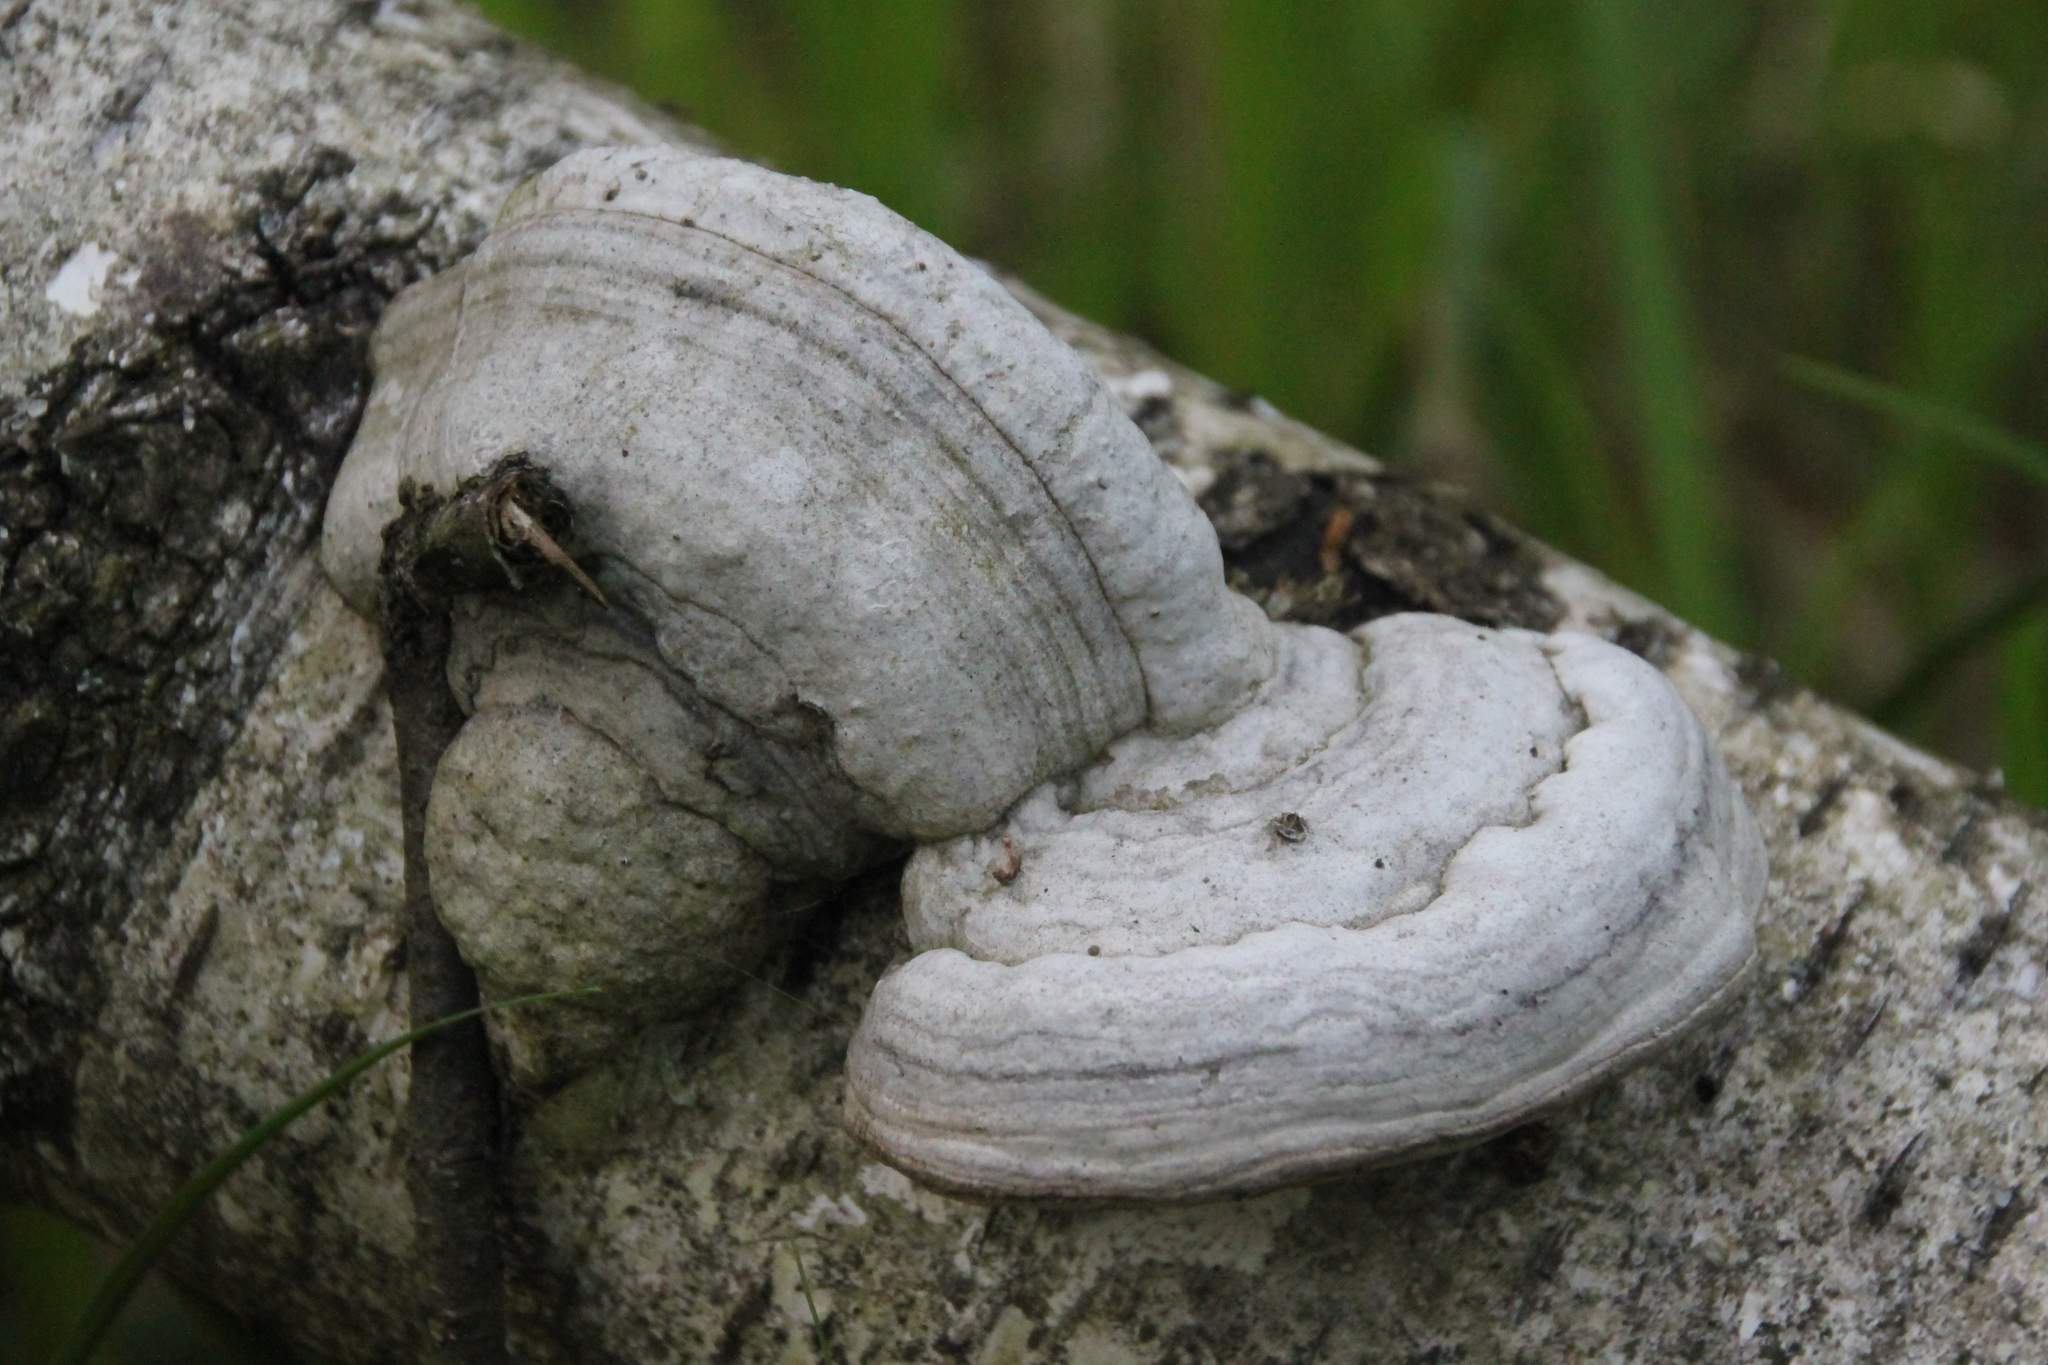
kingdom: Fungi
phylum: Basidiomycota
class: Agaricomycetes
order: Polyporales
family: Polyporaceae
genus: Fomes
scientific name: Fomes fomentarius
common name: Hoof fungus
